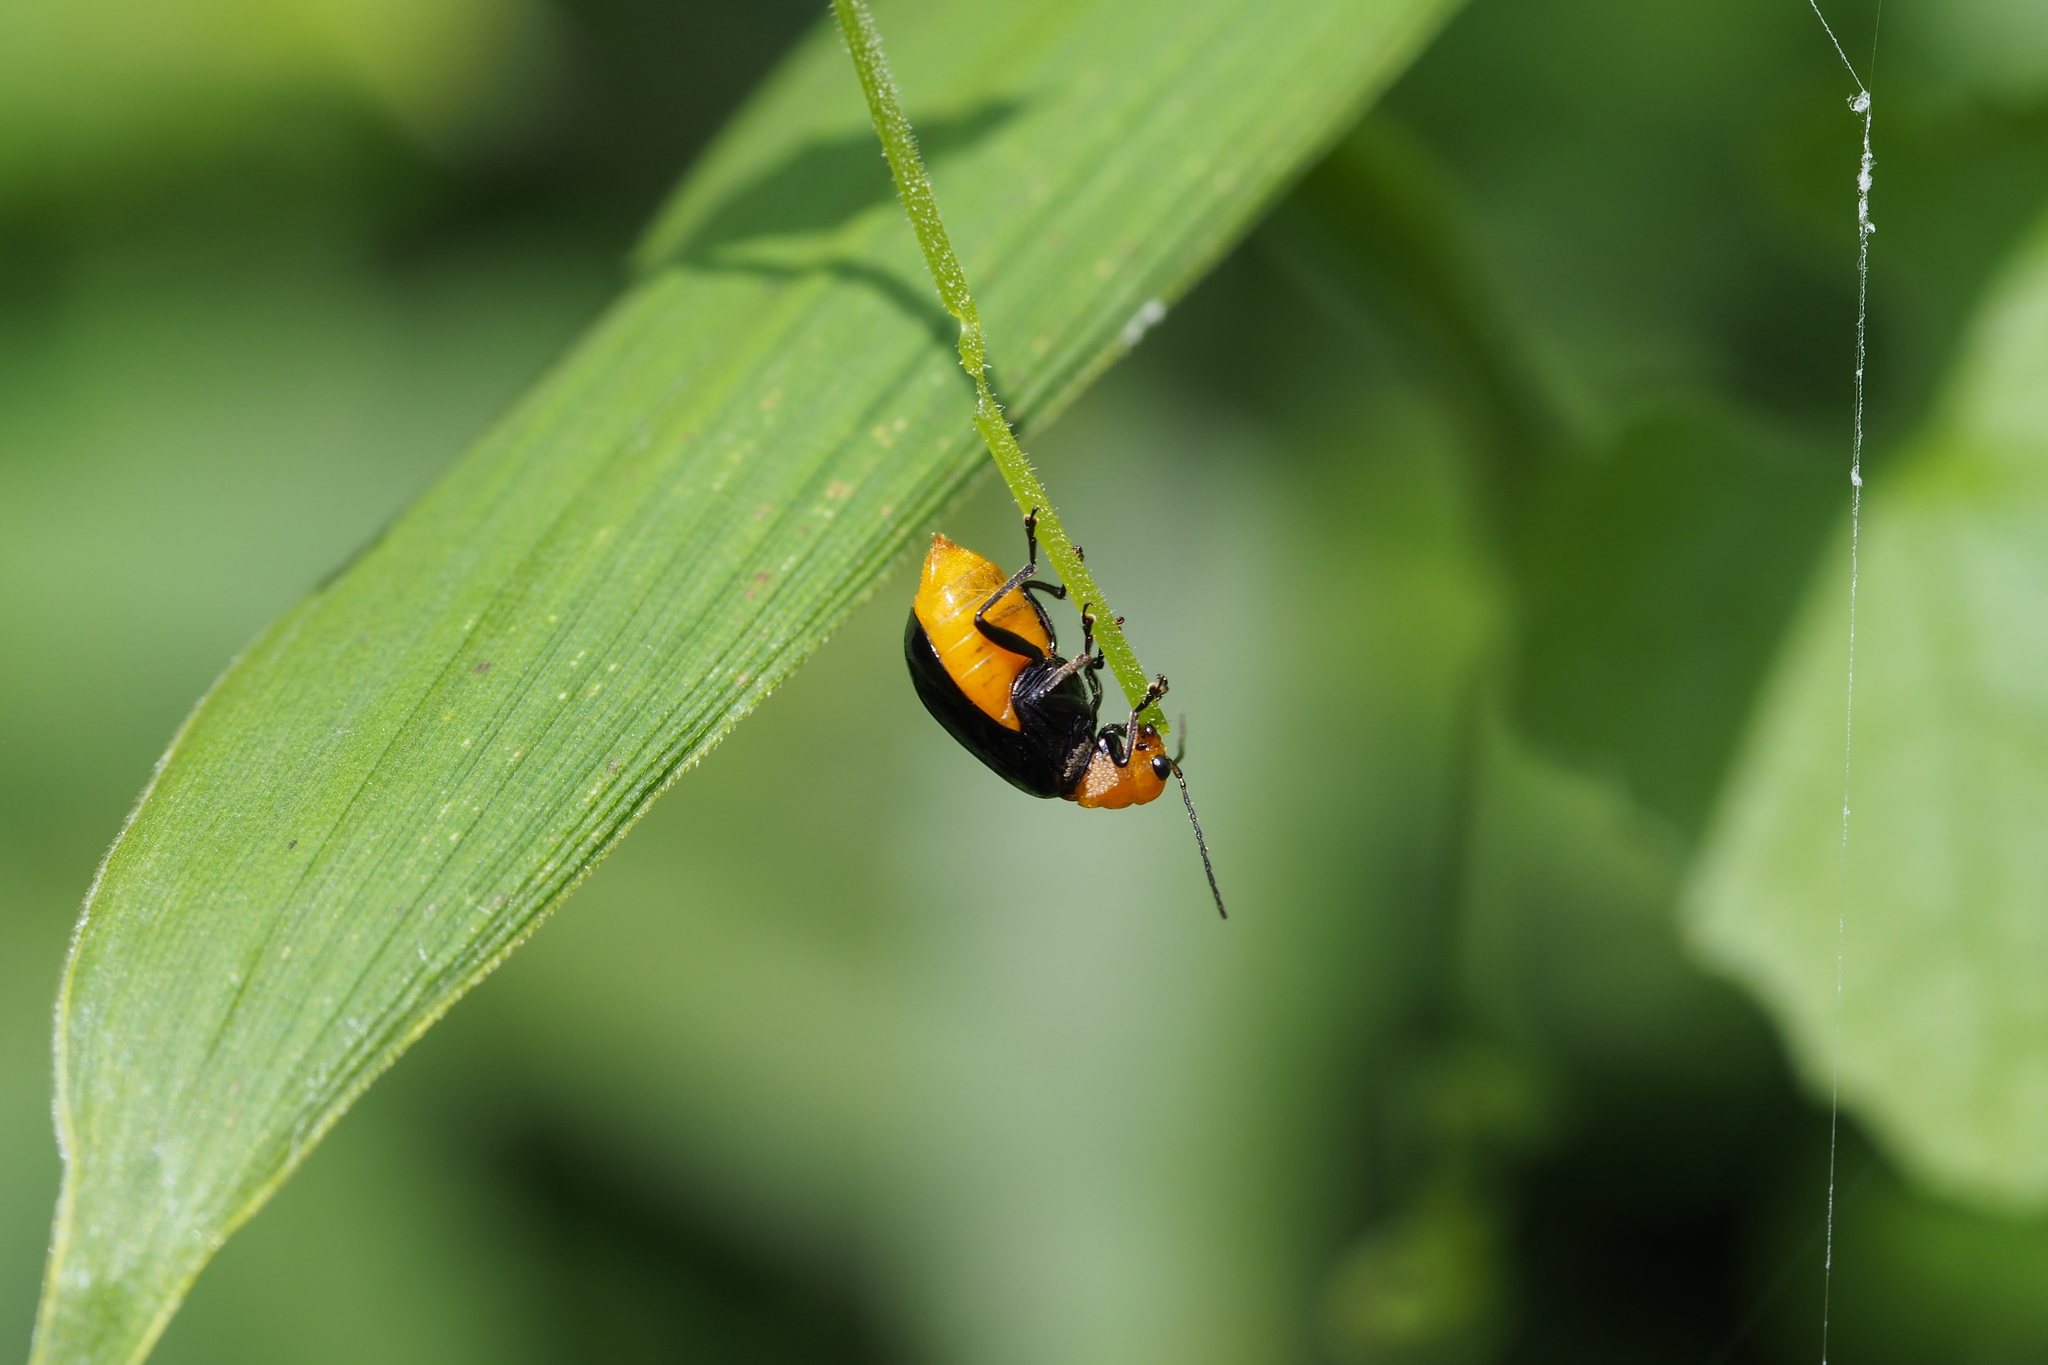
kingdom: Animalia
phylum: Arthropoda
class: Insecta
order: Coleoptera
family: Chrysomelidae
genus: Aulacophora
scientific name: Aulacophora nigripennis
